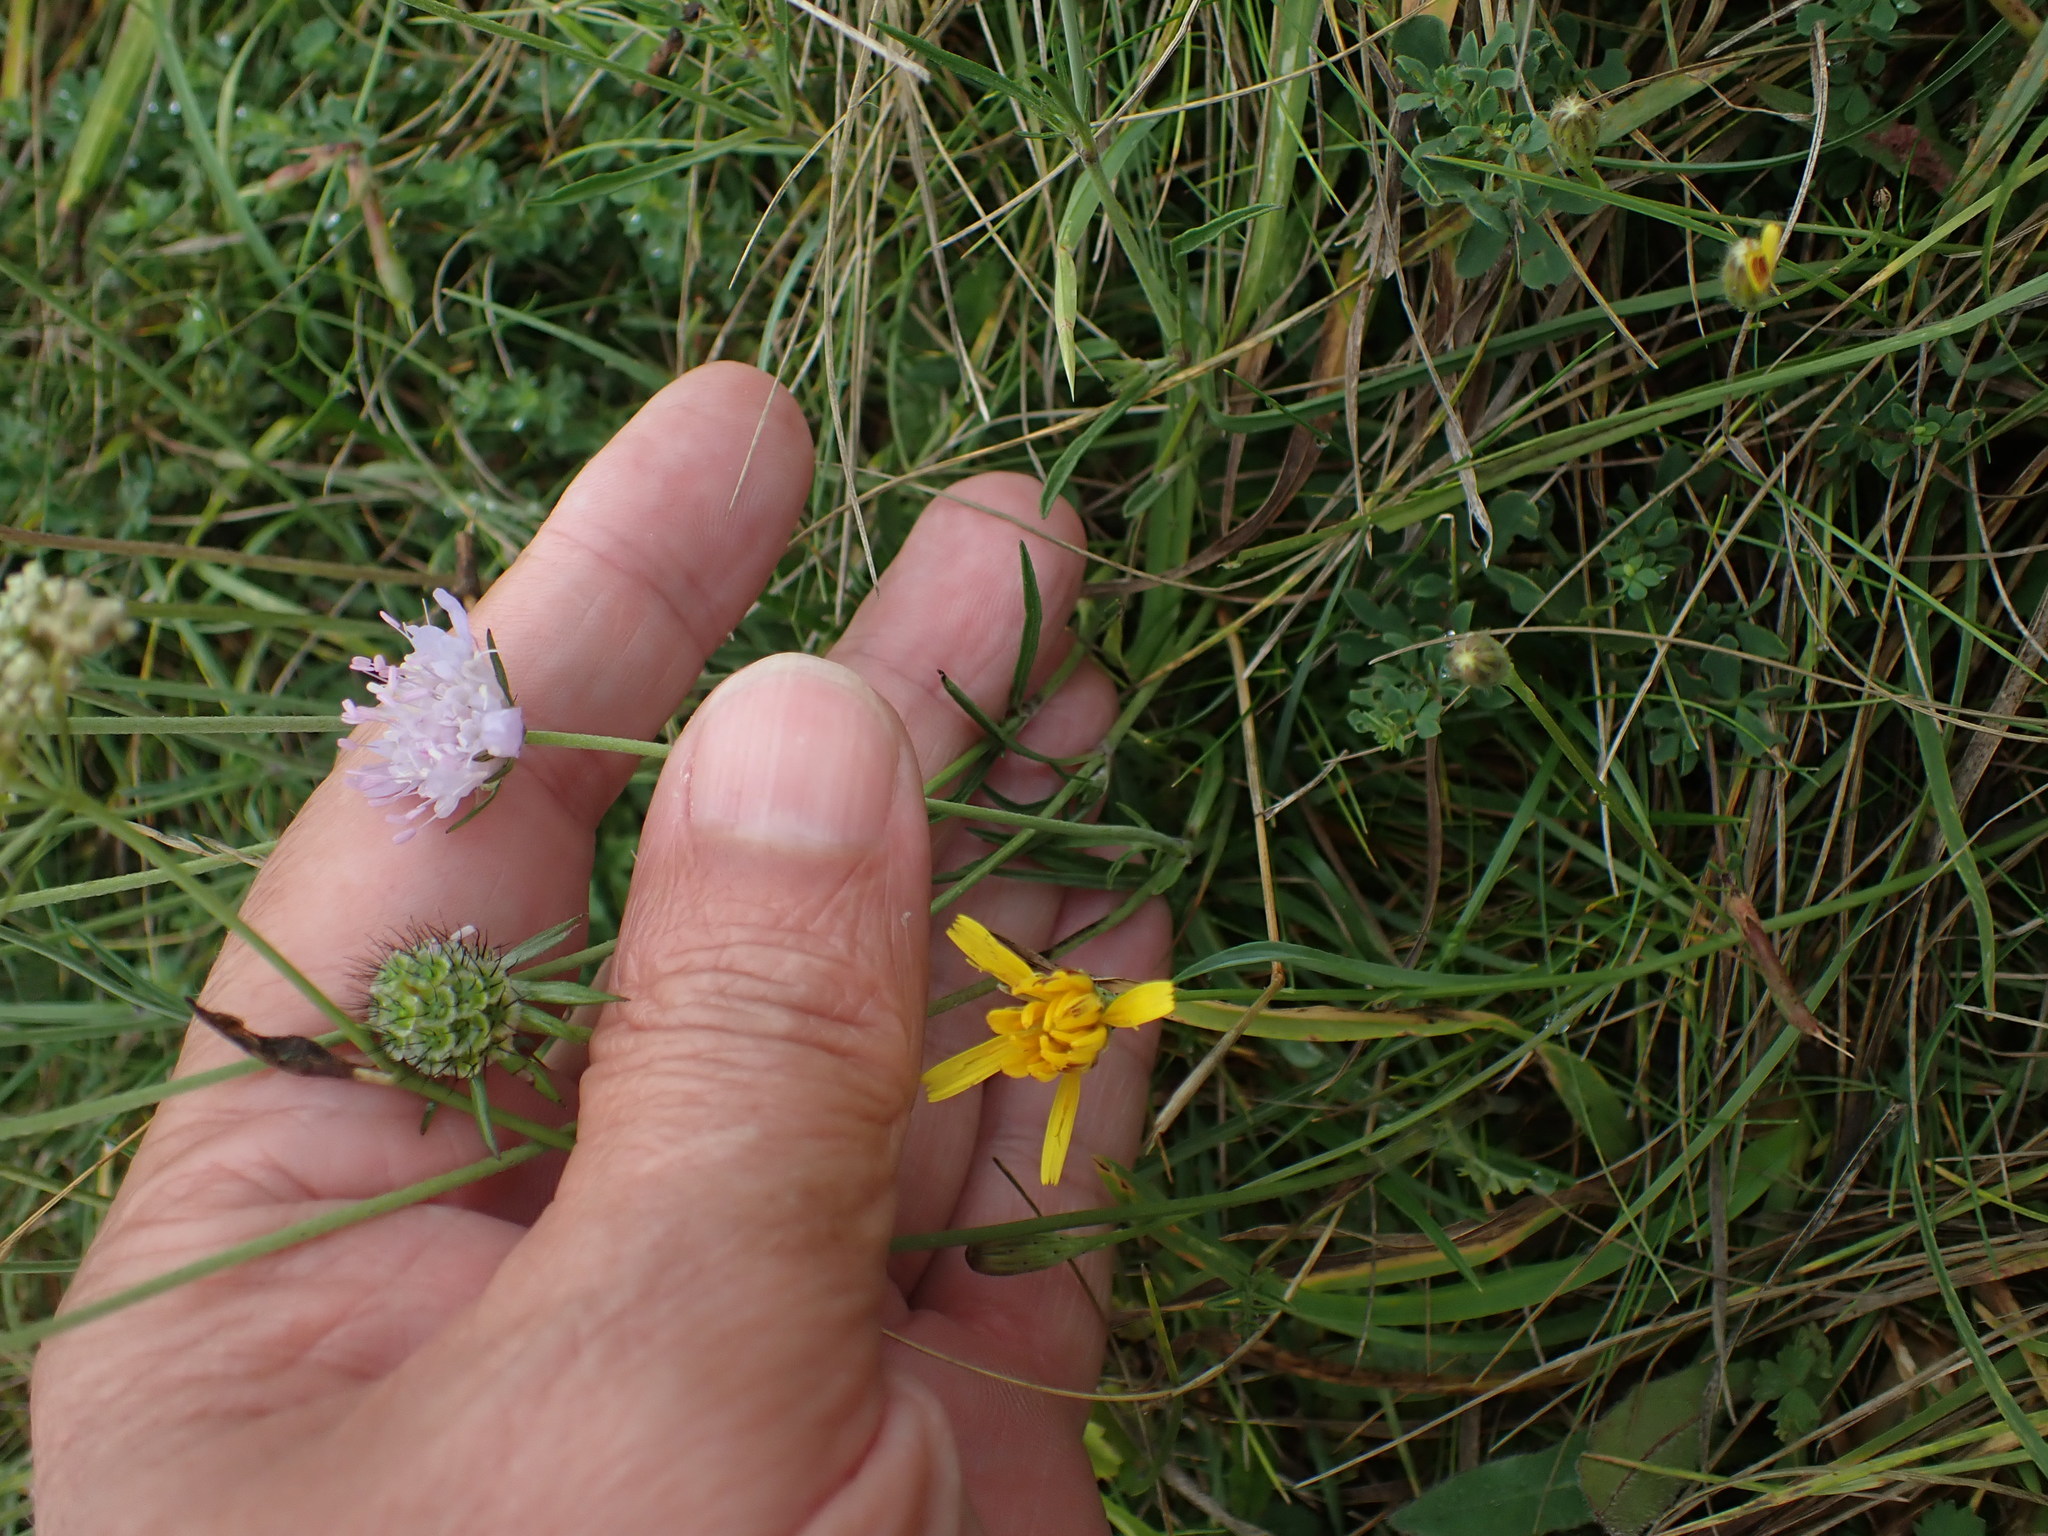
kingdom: Plantae
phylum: Tracheophyta
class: Magnoliopsida
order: Dipsacales
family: Caprifoliaceae
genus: Scabiosa
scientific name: Scabiosa columbaria
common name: Small scabious
